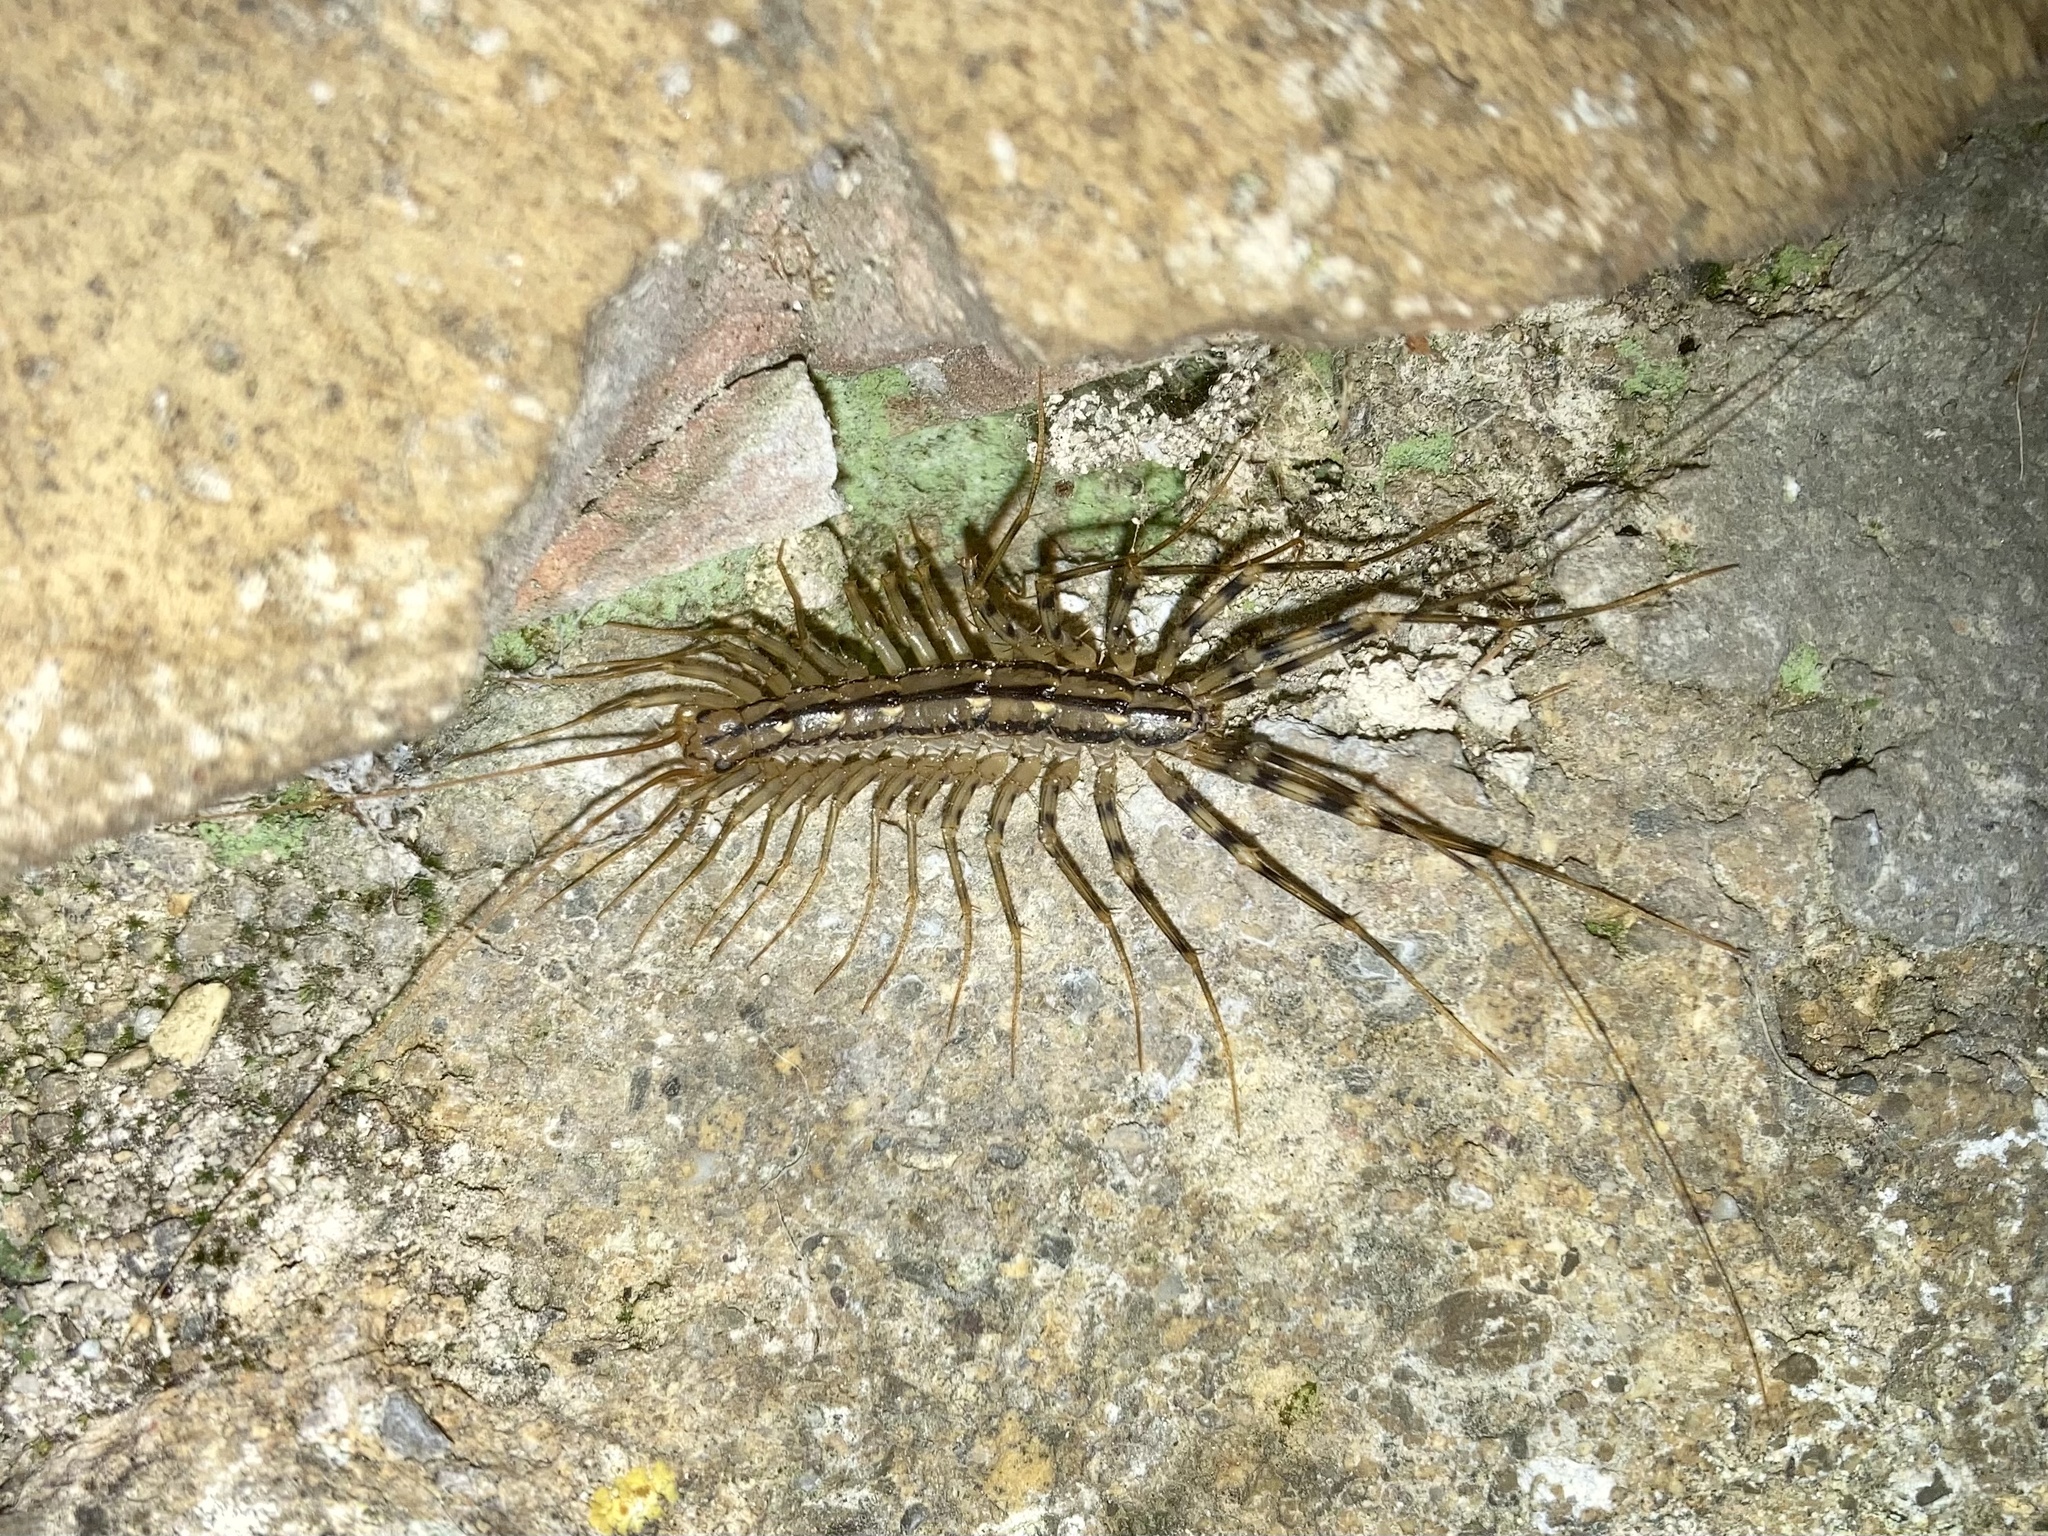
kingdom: Animalia
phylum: Arthropoda
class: Chilopoda
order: Scutigeromorpha
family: Scutigeridae
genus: Scutigera
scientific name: Scutigera coleoptrata
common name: House centipede
